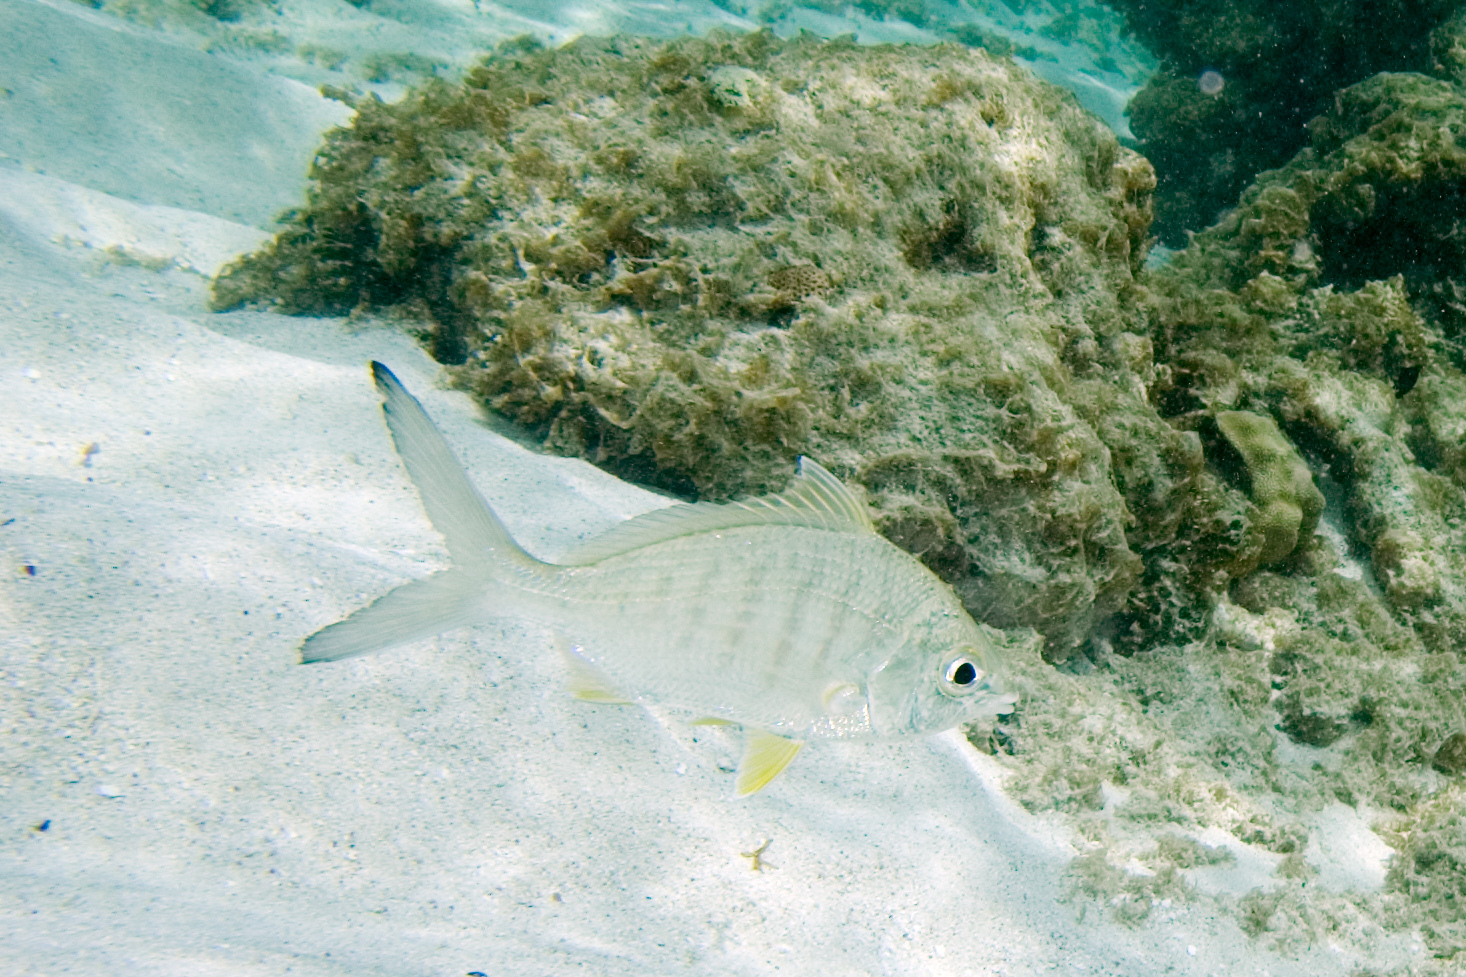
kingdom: Animalia
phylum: Chordata
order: Perciformes
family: Gerreidae
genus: Gerres
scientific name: Gerres cinereus
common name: Hedow
